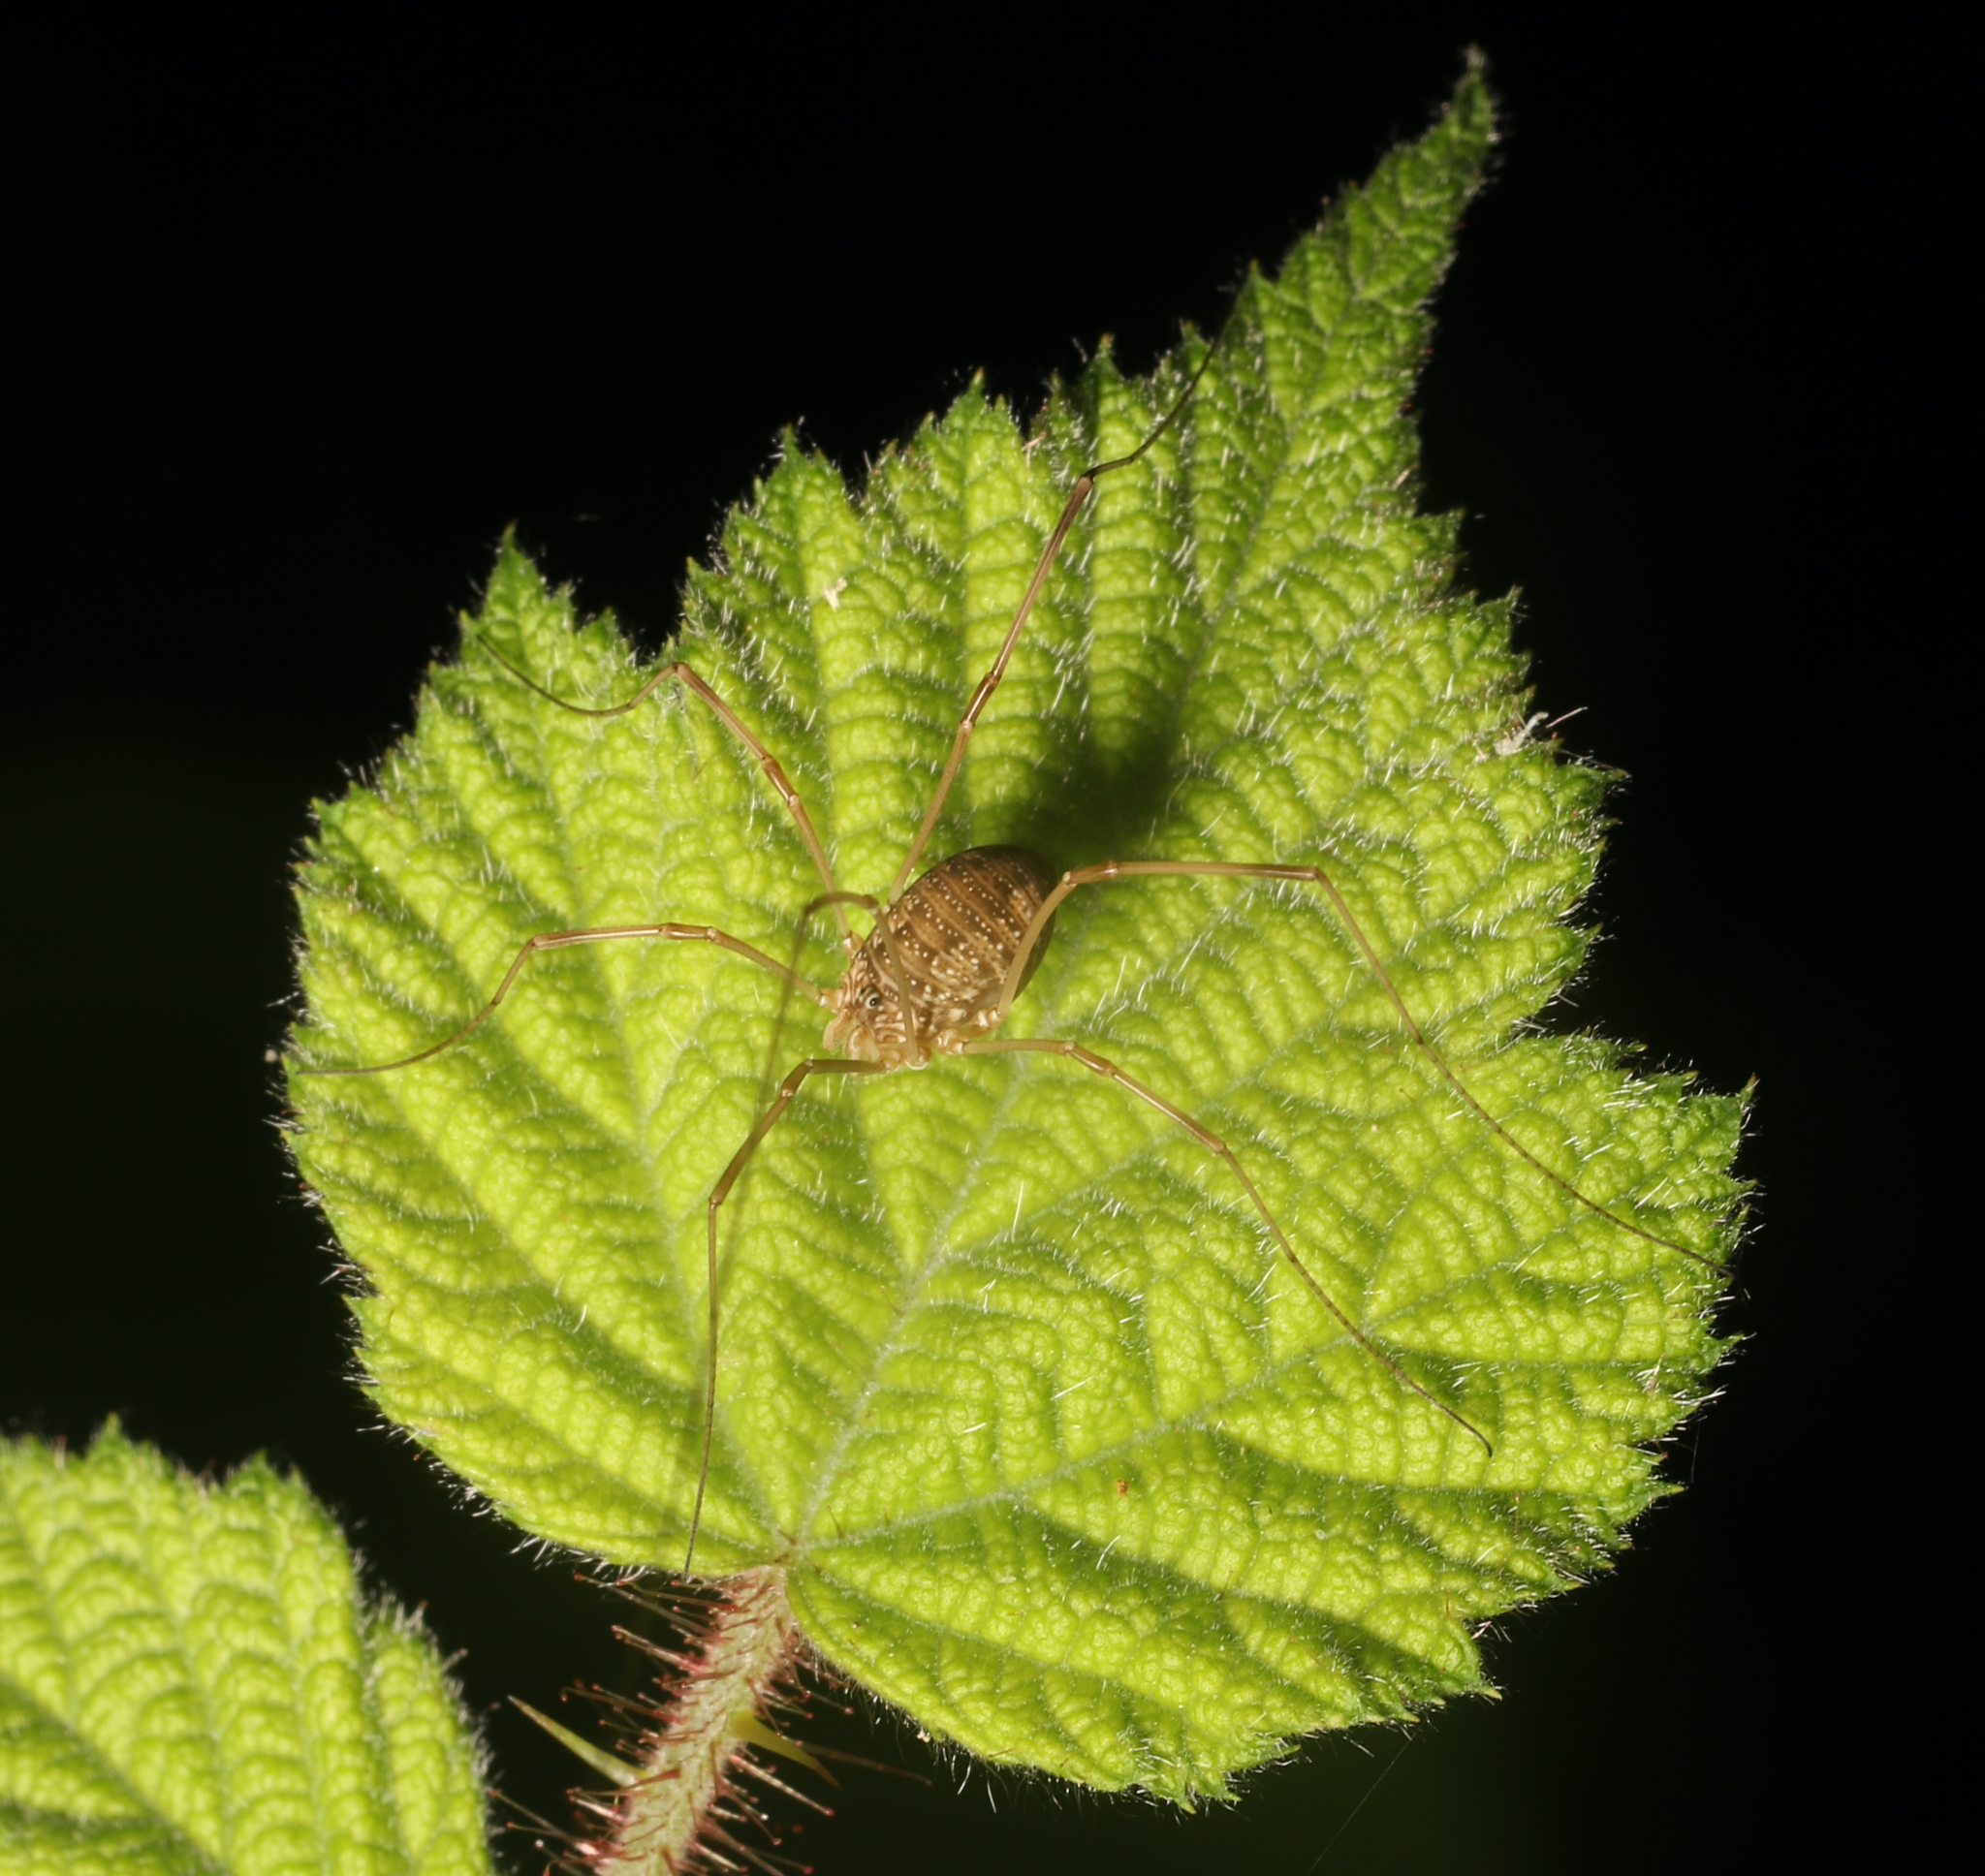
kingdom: Plantae
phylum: Tracheophyta
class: Magnoliopsida
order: Rosales
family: Rosaceae
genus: Rubus
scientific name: Rubus phoenicolasius
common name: Japanese wineberry
